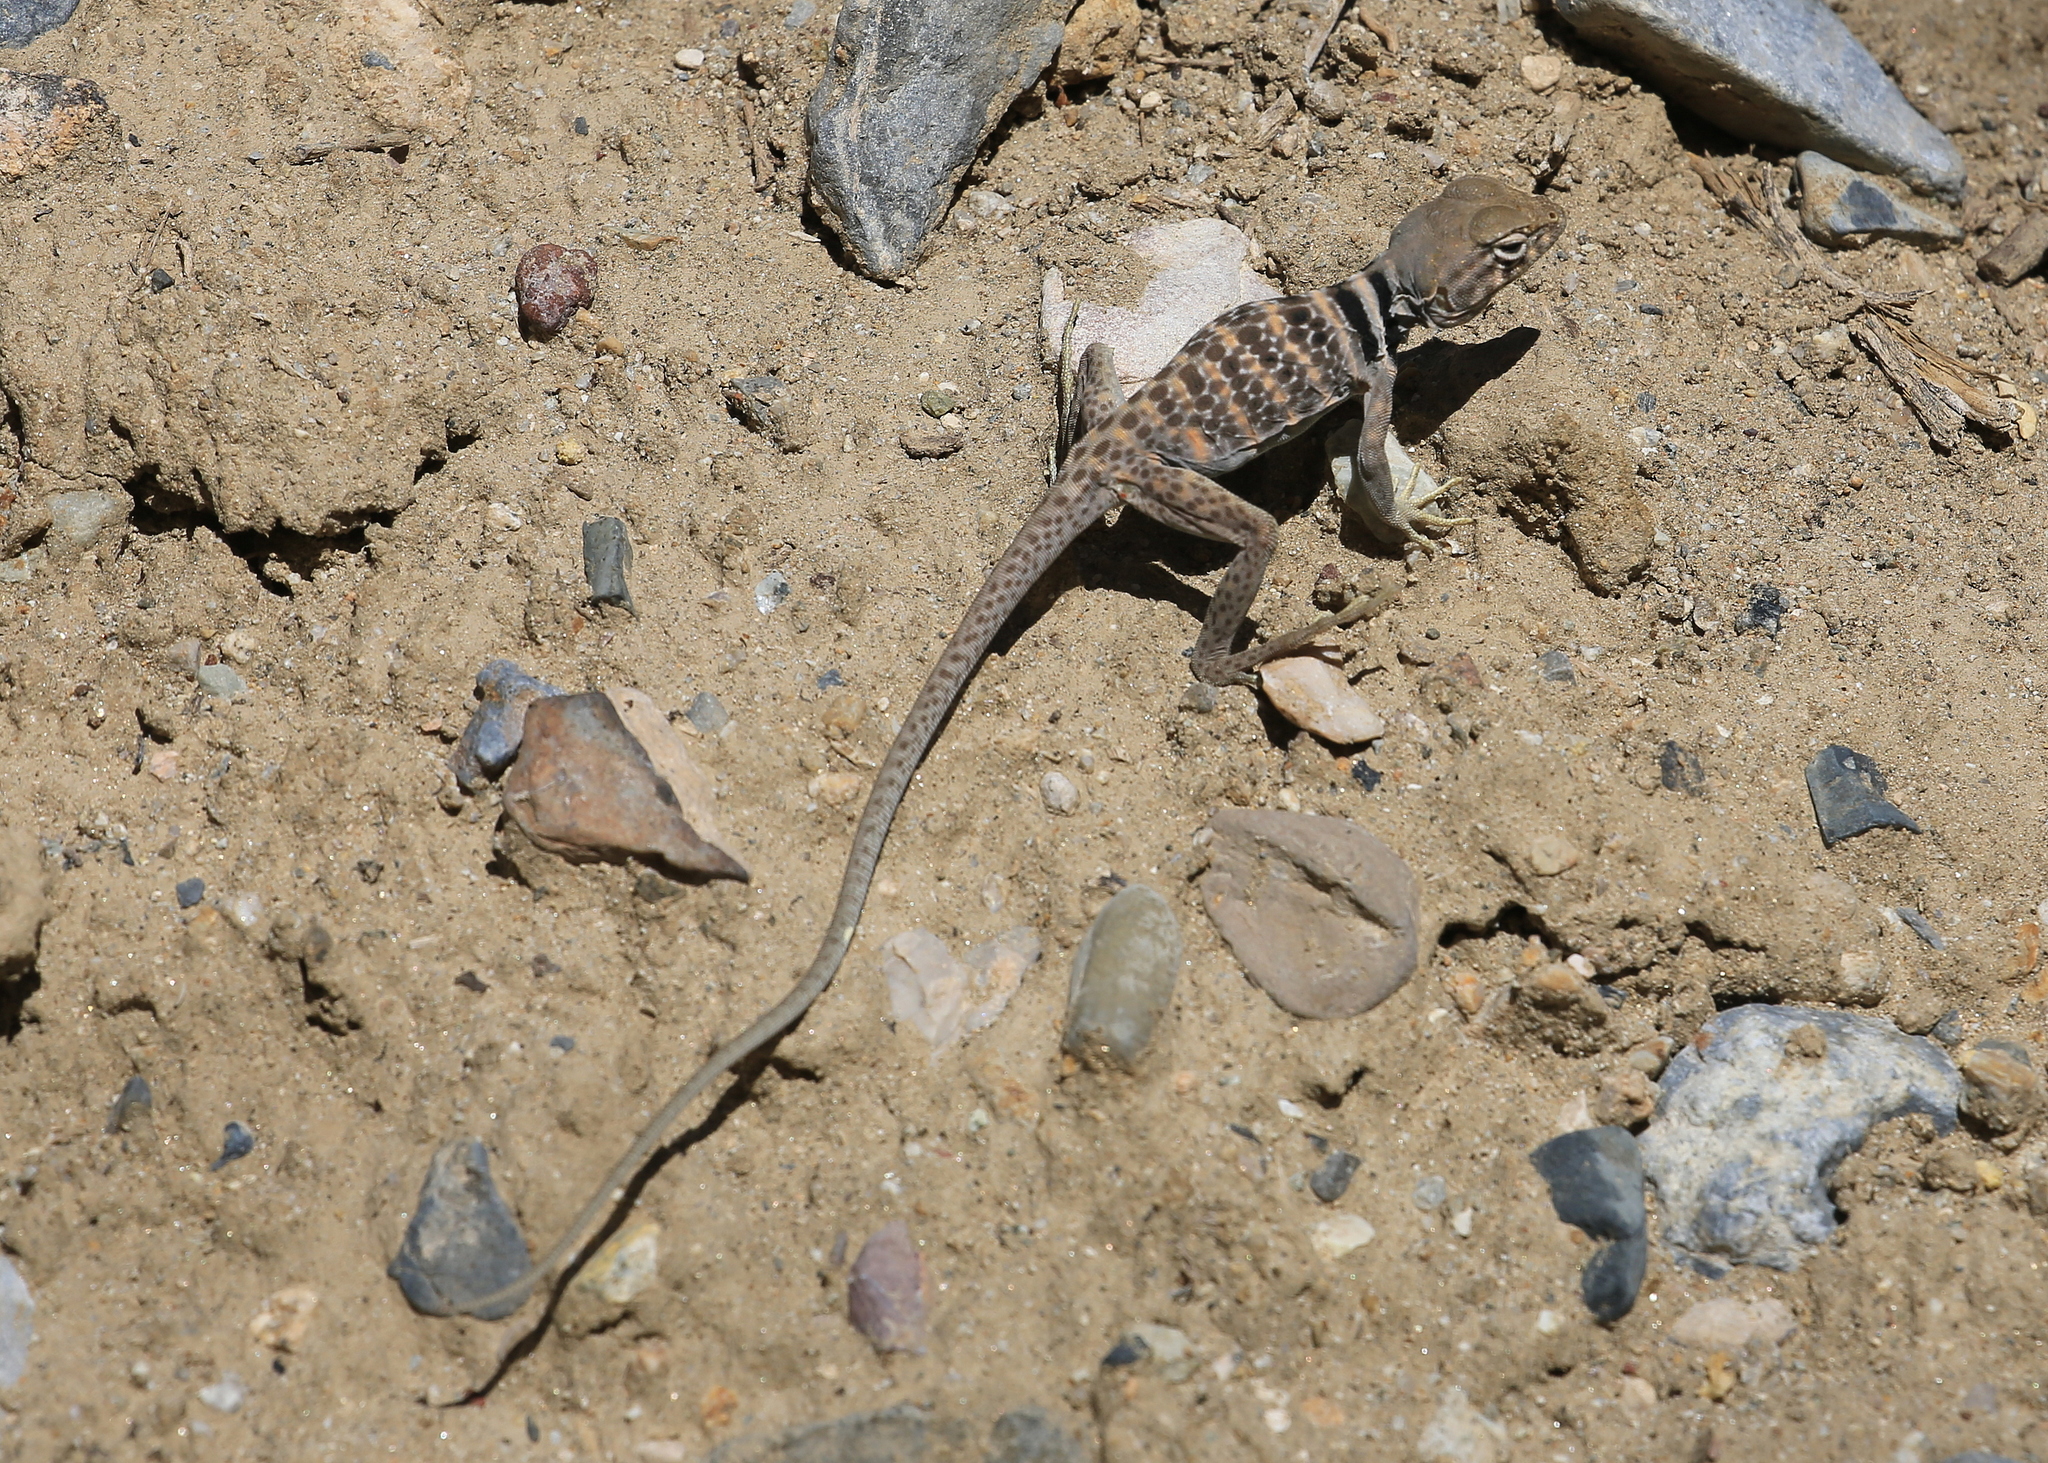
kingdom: Animalia
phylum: Chordata
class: Squamata
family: Crotaphytidae
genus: Crotaphytus
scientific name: Crotaphytus bicinctores
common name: Mojave black-collared lizard
